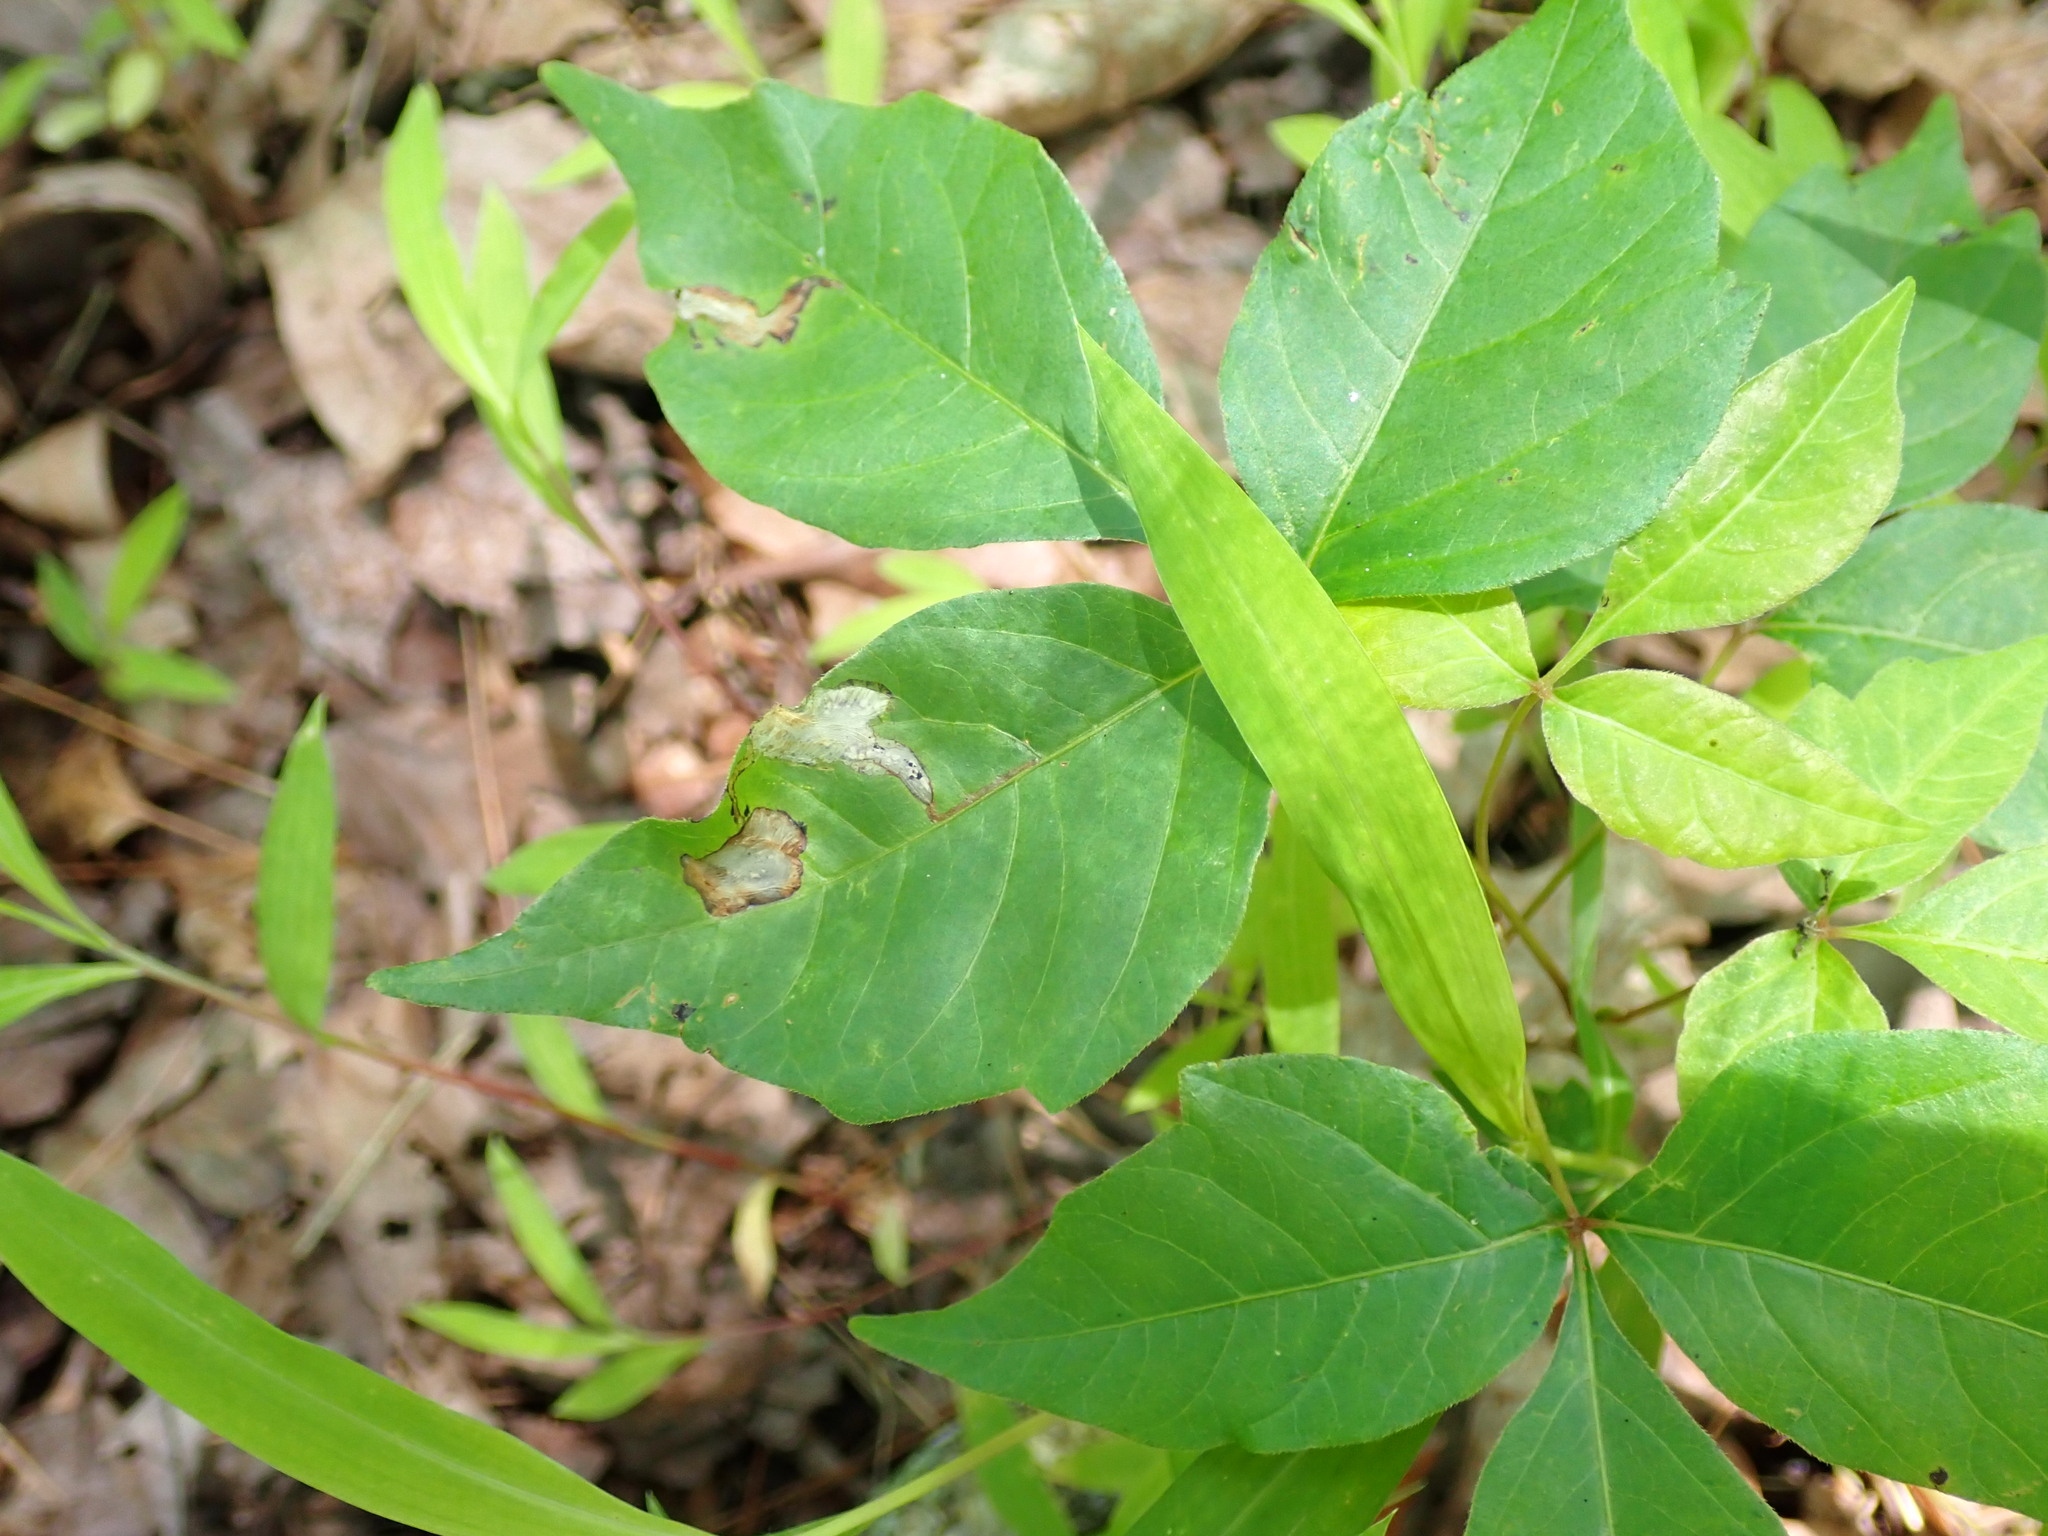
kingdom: Plantae
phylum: Tracheophyta
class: Magnoliopsida
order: Sapindales
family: Anacardiaceae
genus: Toxicodendron
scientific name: Toxicodendron radicans
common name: Poison ivy
